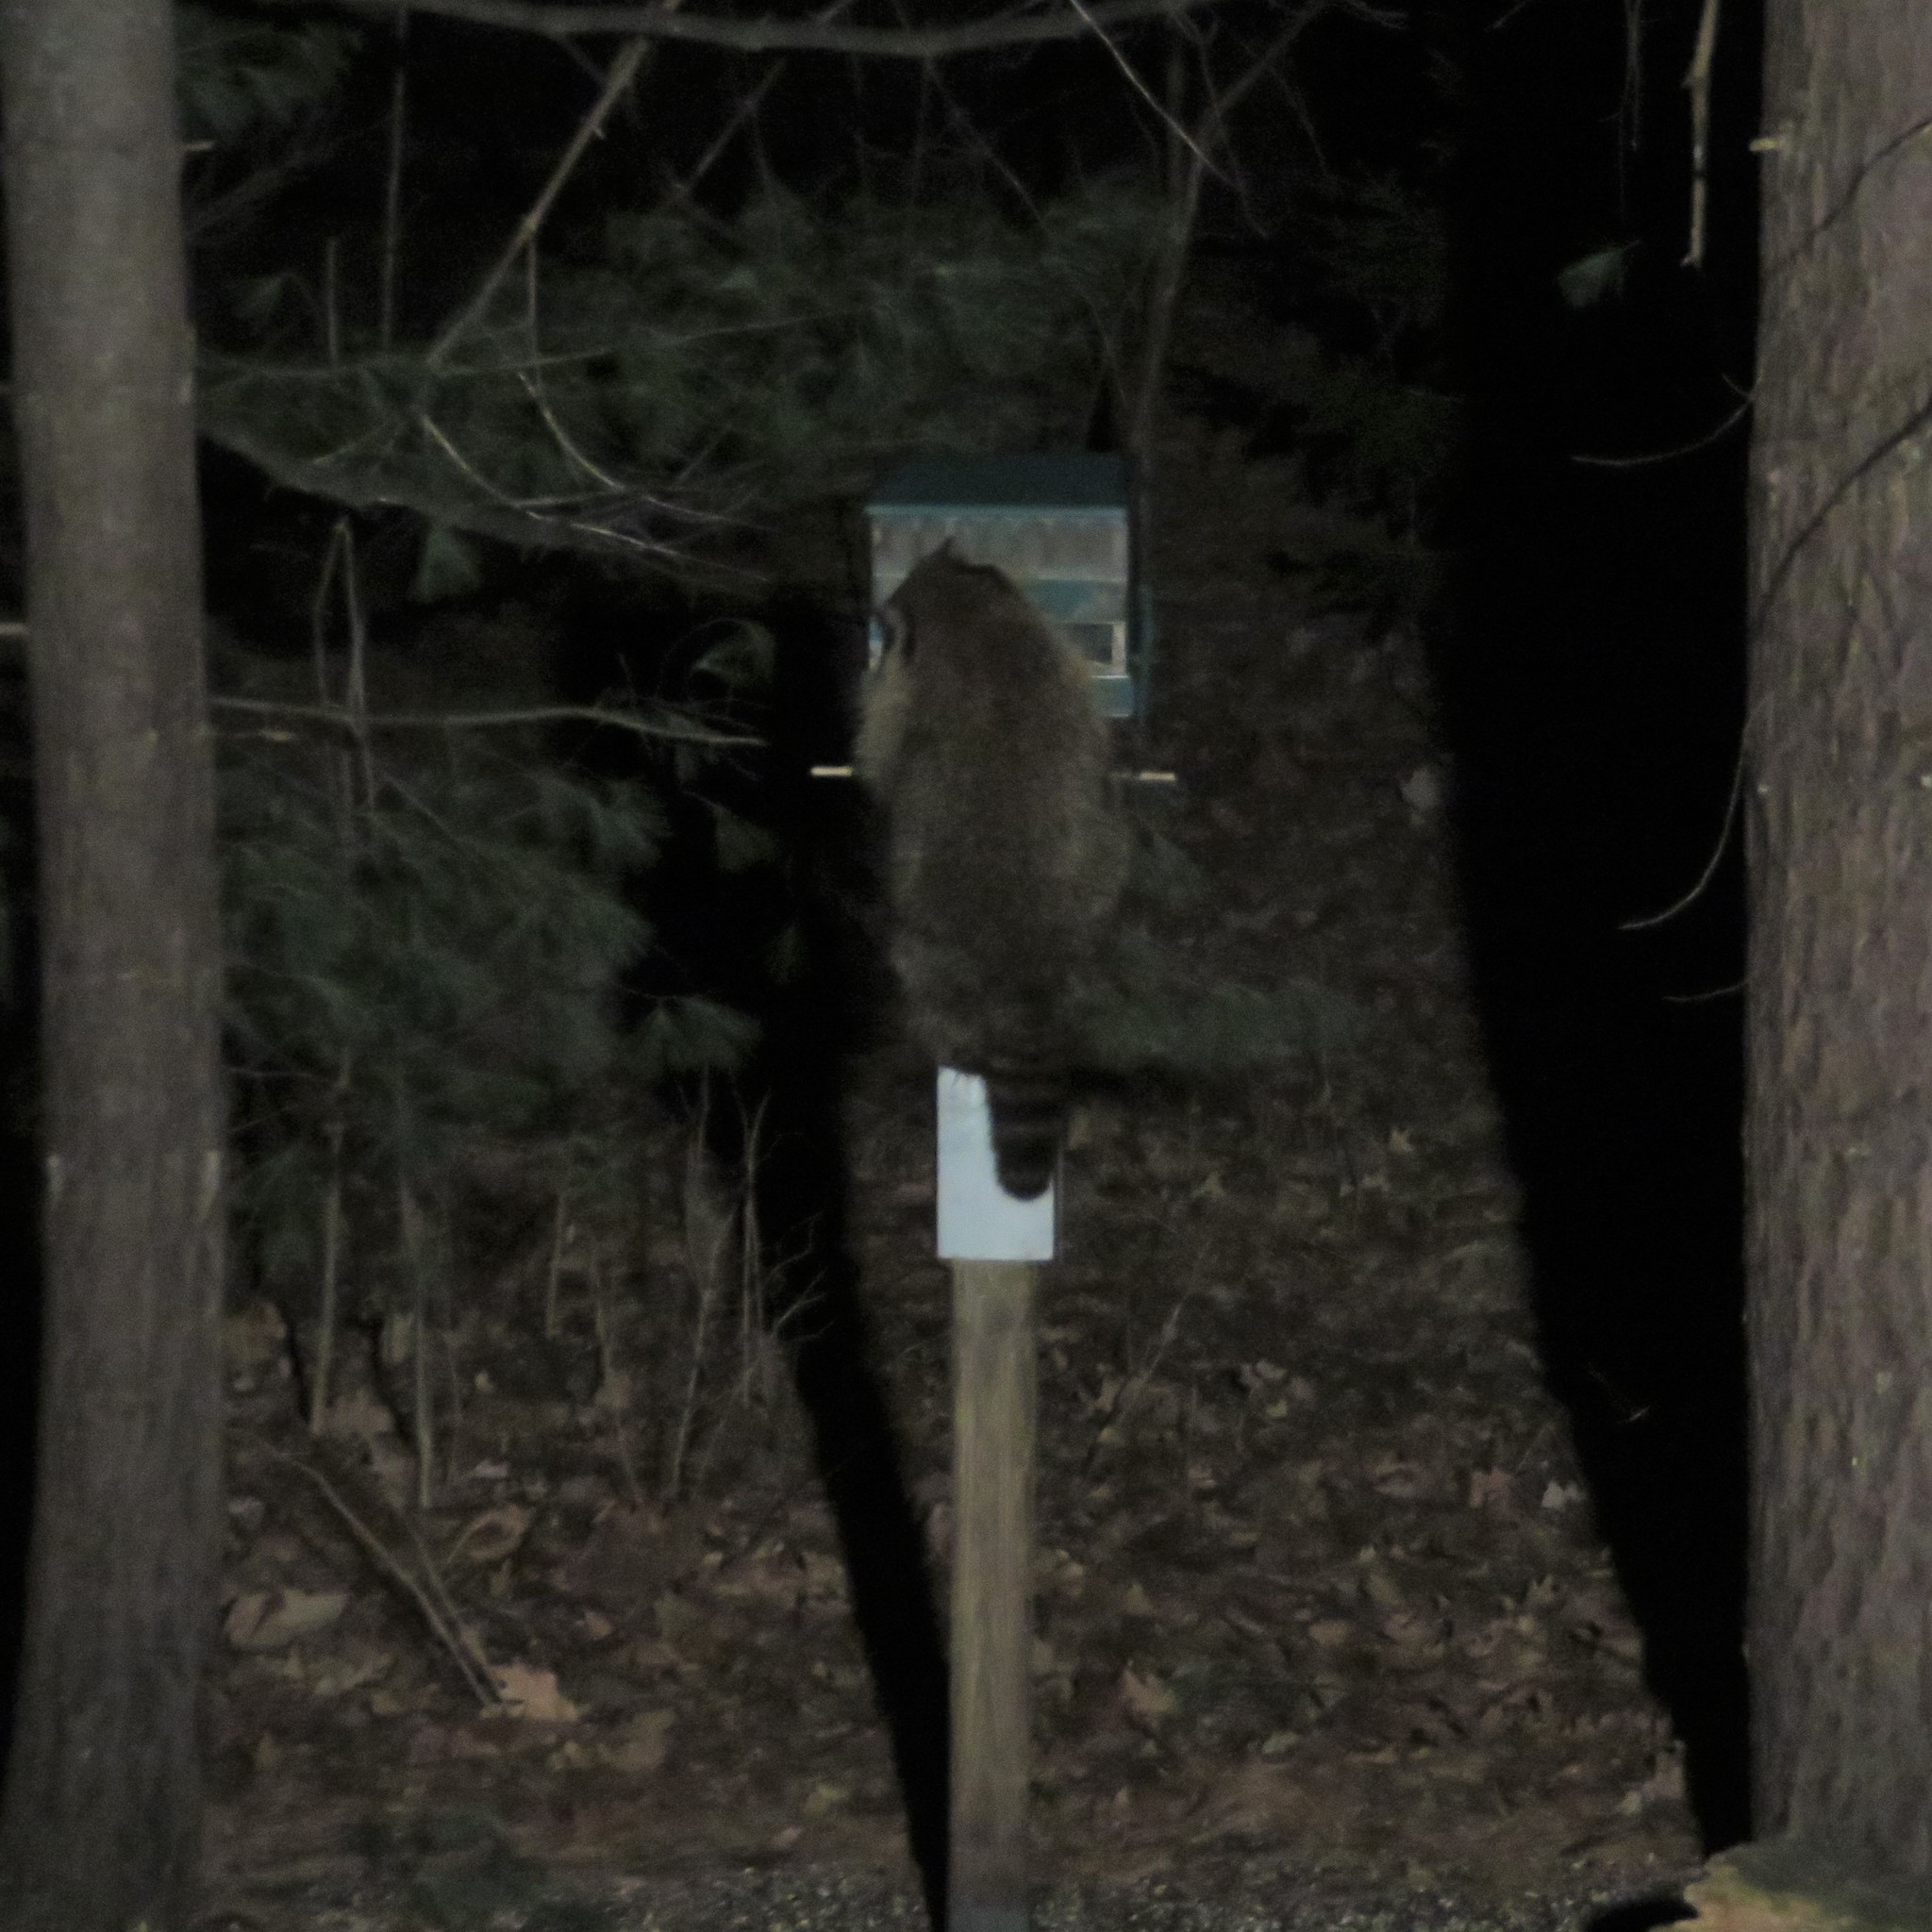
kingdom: Animalia
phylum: Chordata
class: Mammalia
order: Carnivora
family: Procyonidae
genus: Procyon
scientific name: Procyon lotor
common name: Raccoon
